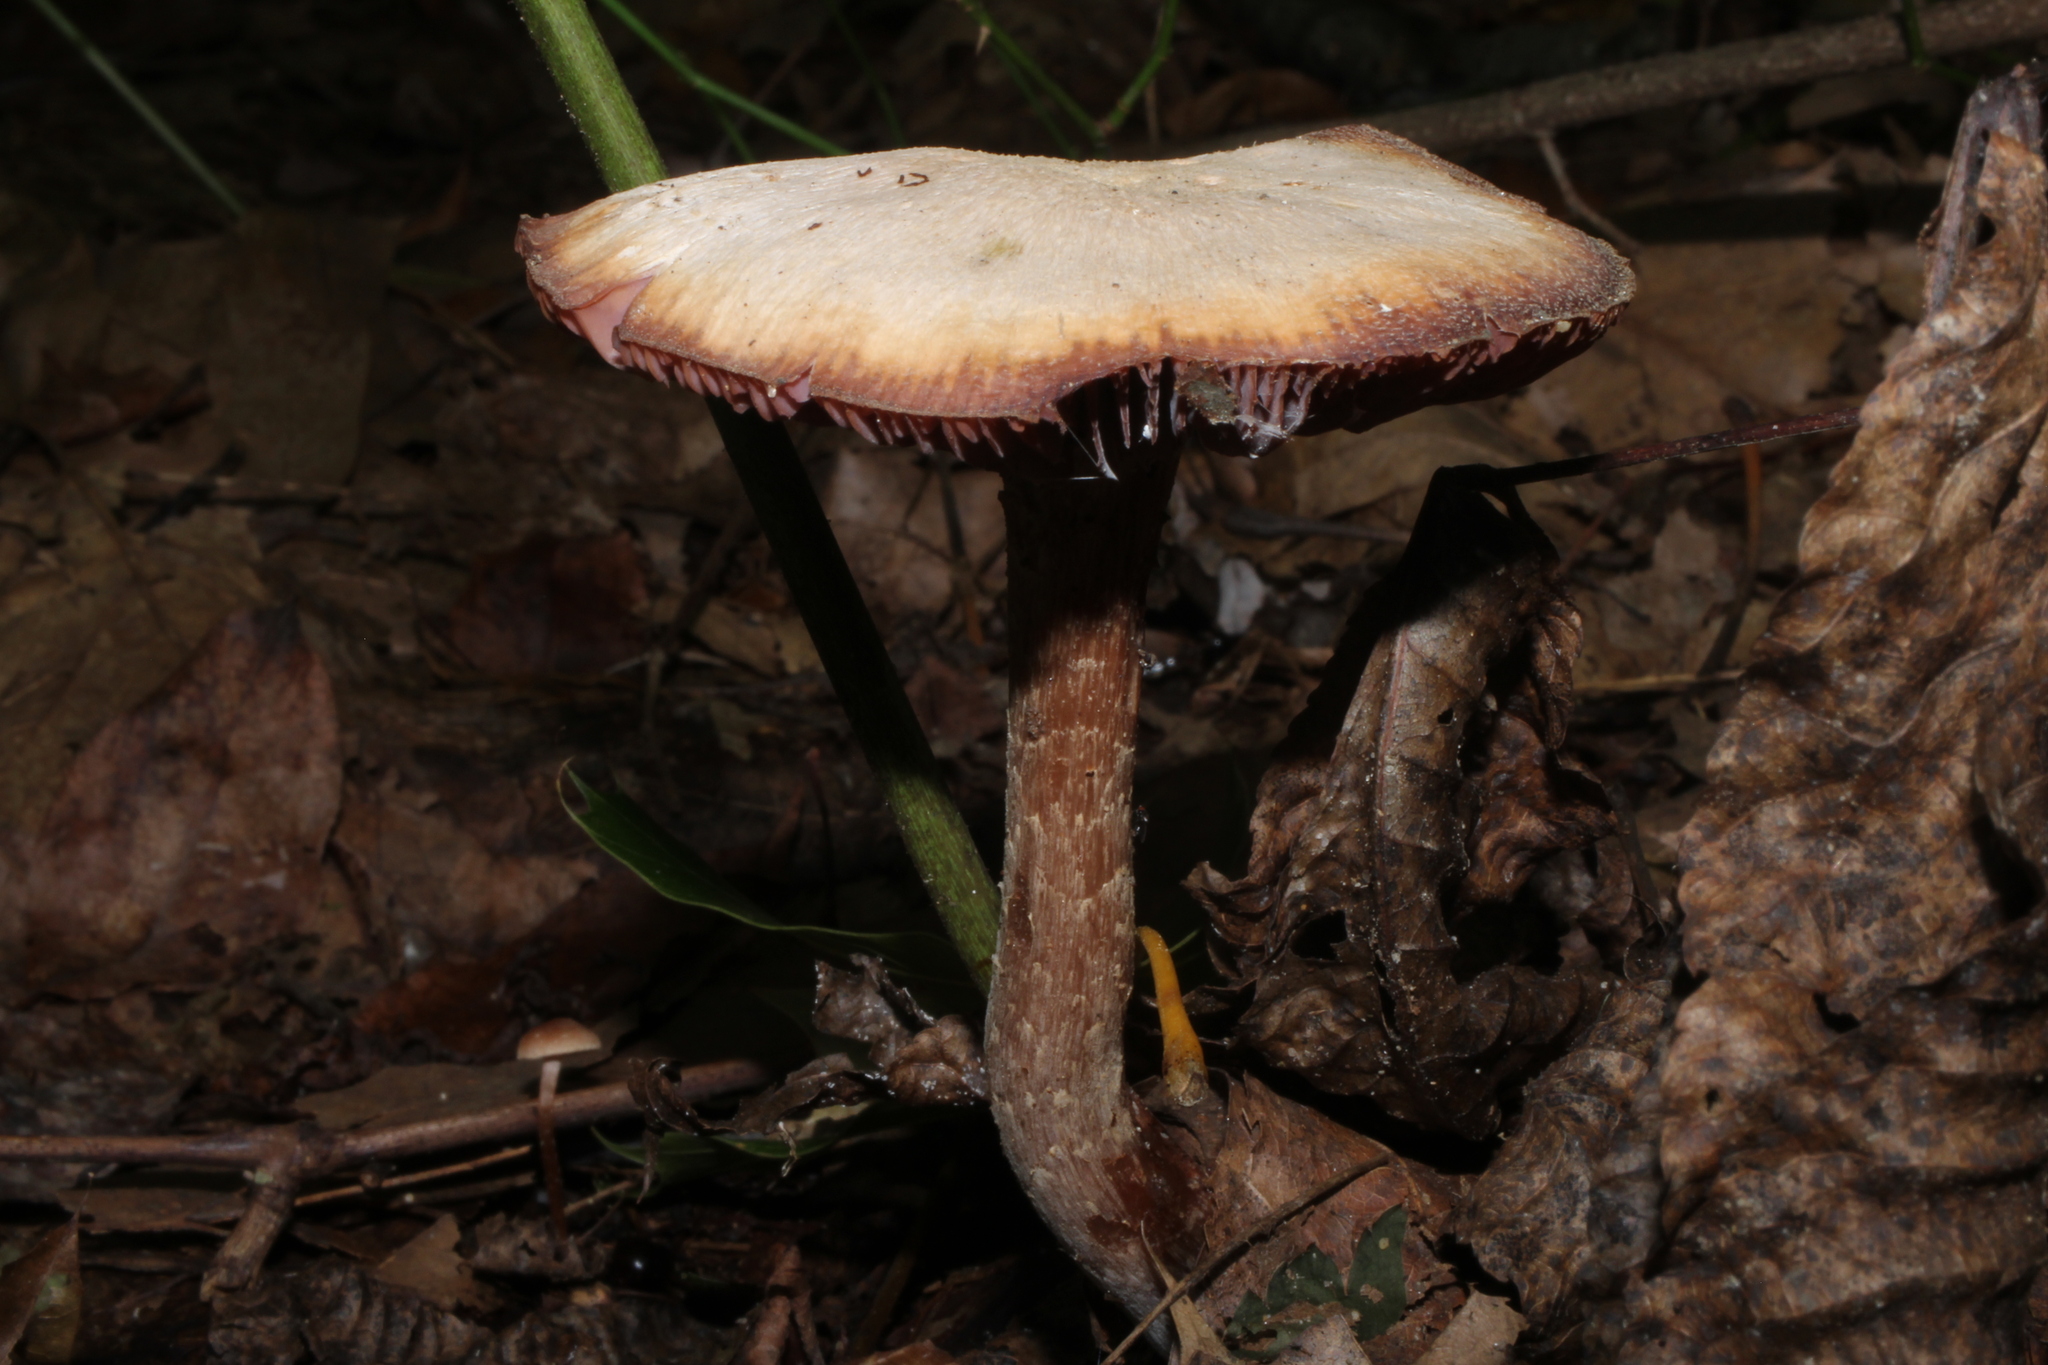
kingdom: Fungi
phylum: Basidiomycota
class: Agaricomycetes
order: Agaricales
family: Hydnangiaceae
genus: Laccaria
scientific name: Laccaria ochropurpurea
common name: Purple laccaria
